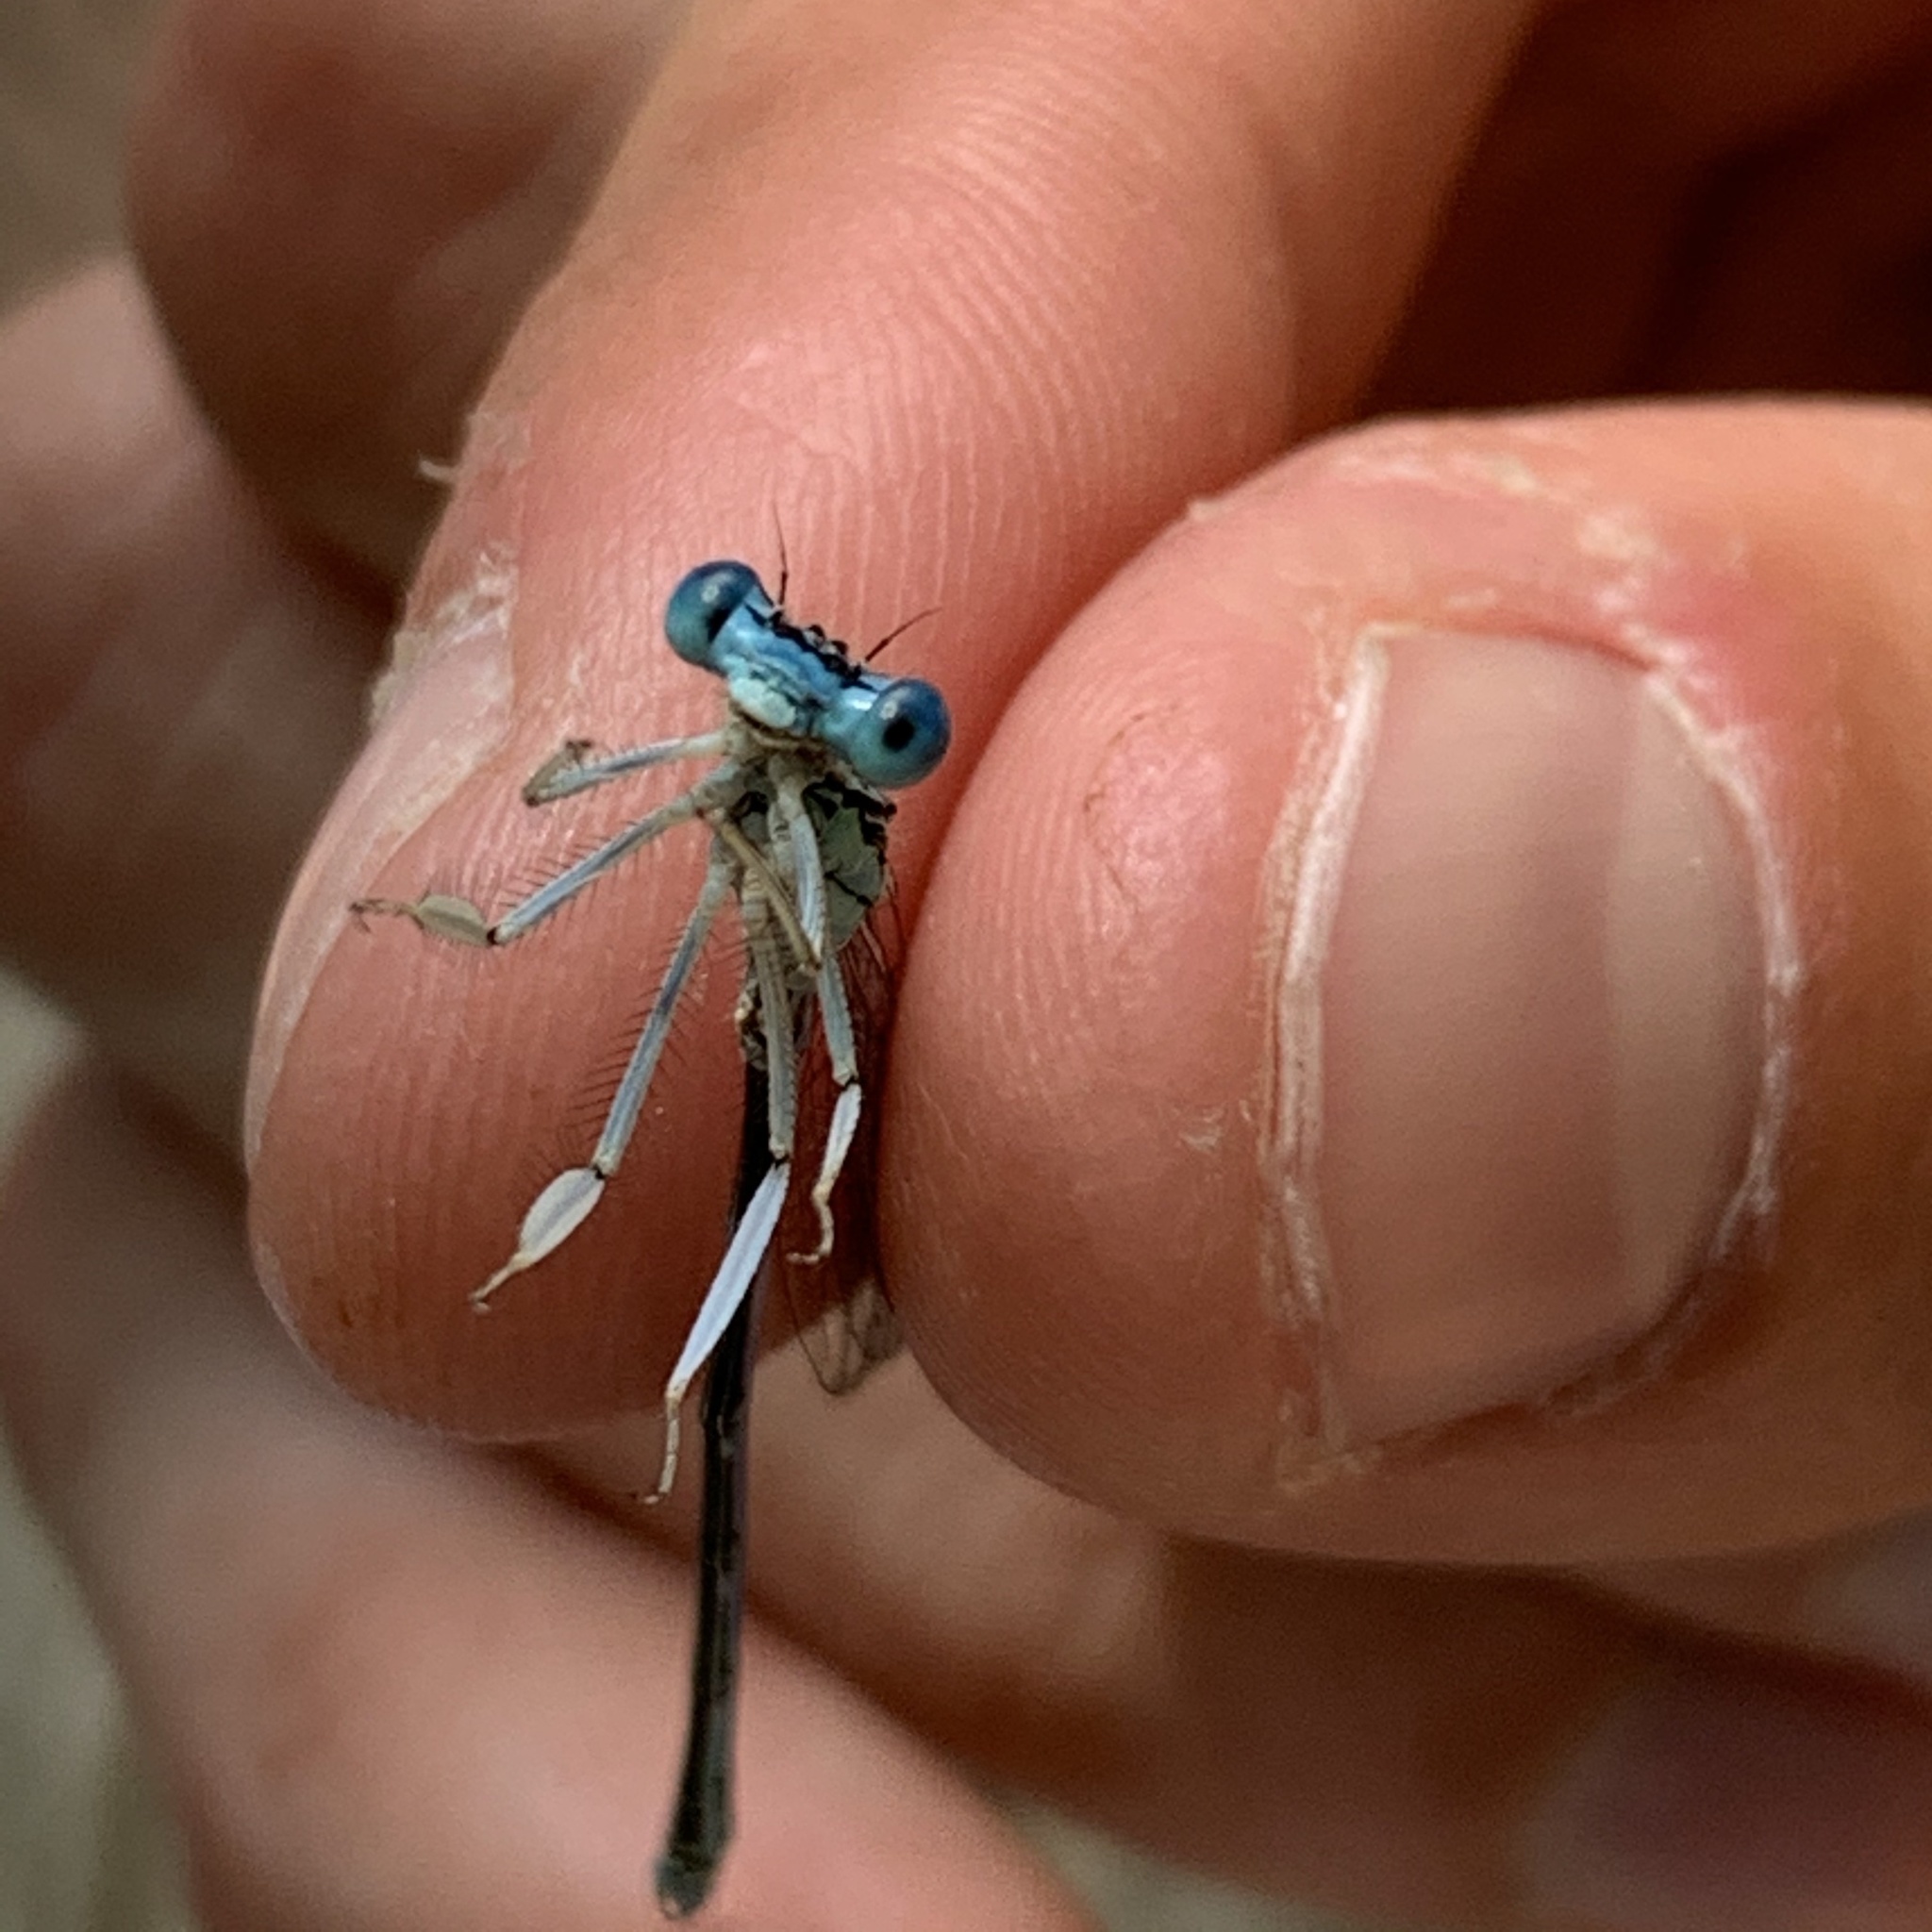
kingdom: Animalia
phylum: Arthropoda
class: Insecta
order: Odonata
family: Platycnemididae
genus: Platycnemis
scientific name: Platycnemis pennipes
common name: White-legged damselfly
